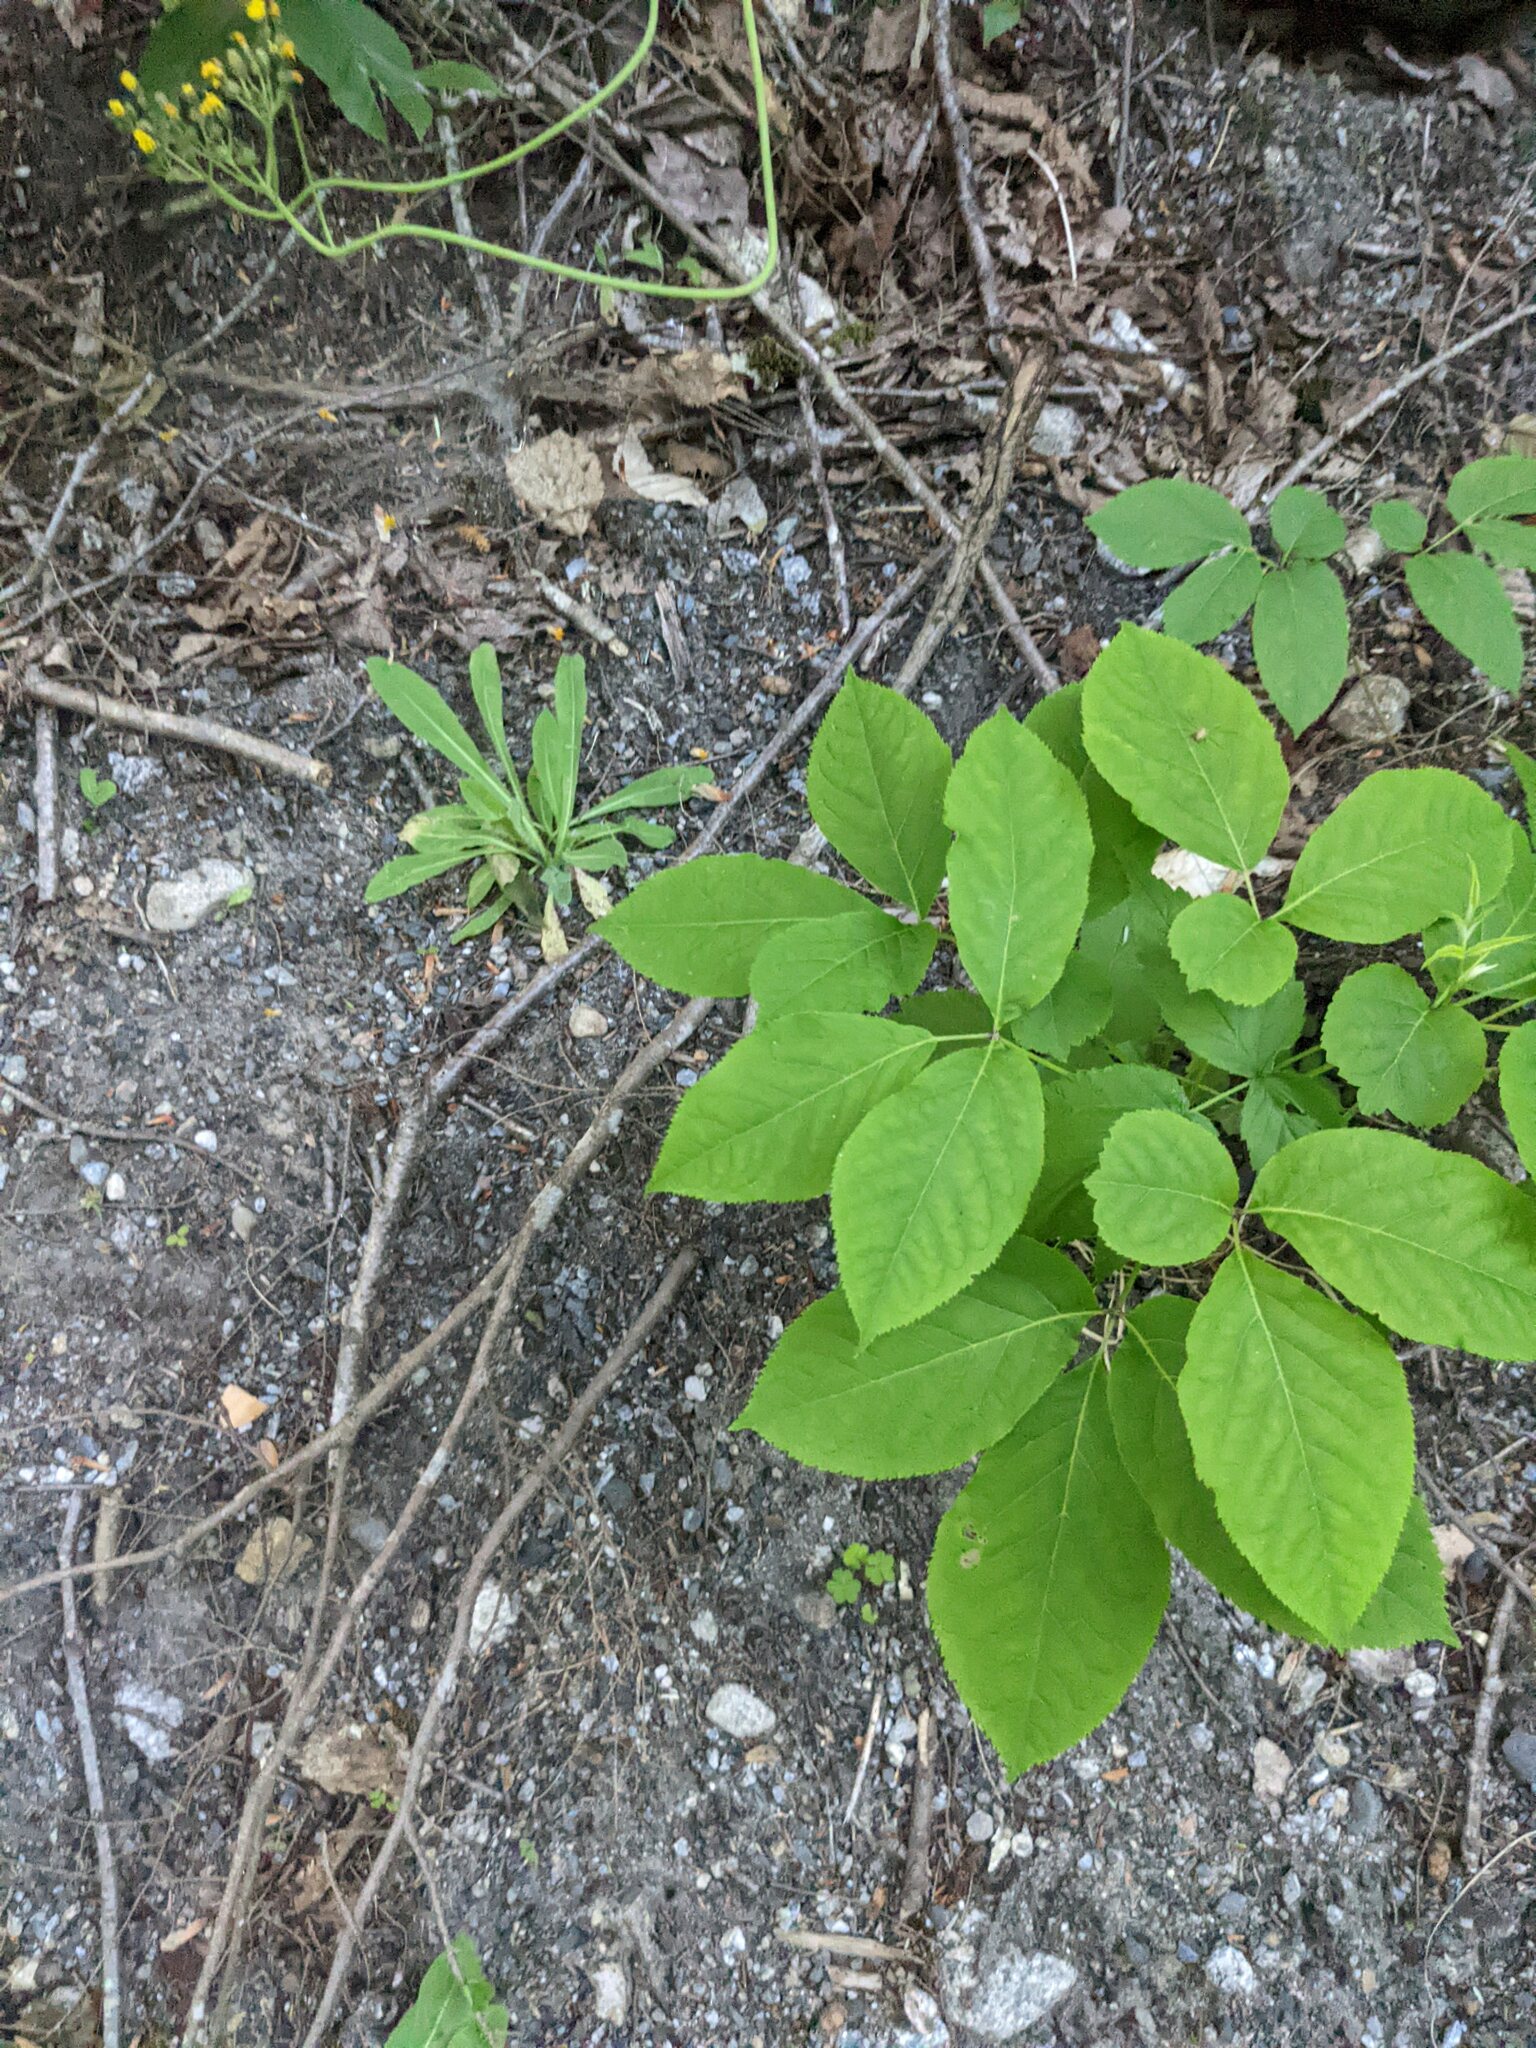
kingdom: Plantae
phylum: Tracheophyta
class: Magnoliopsida
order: Apiales
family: Araliaceae
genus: Aralia
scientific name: Aralia nudicaulis
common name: Wild sarsaparilla
